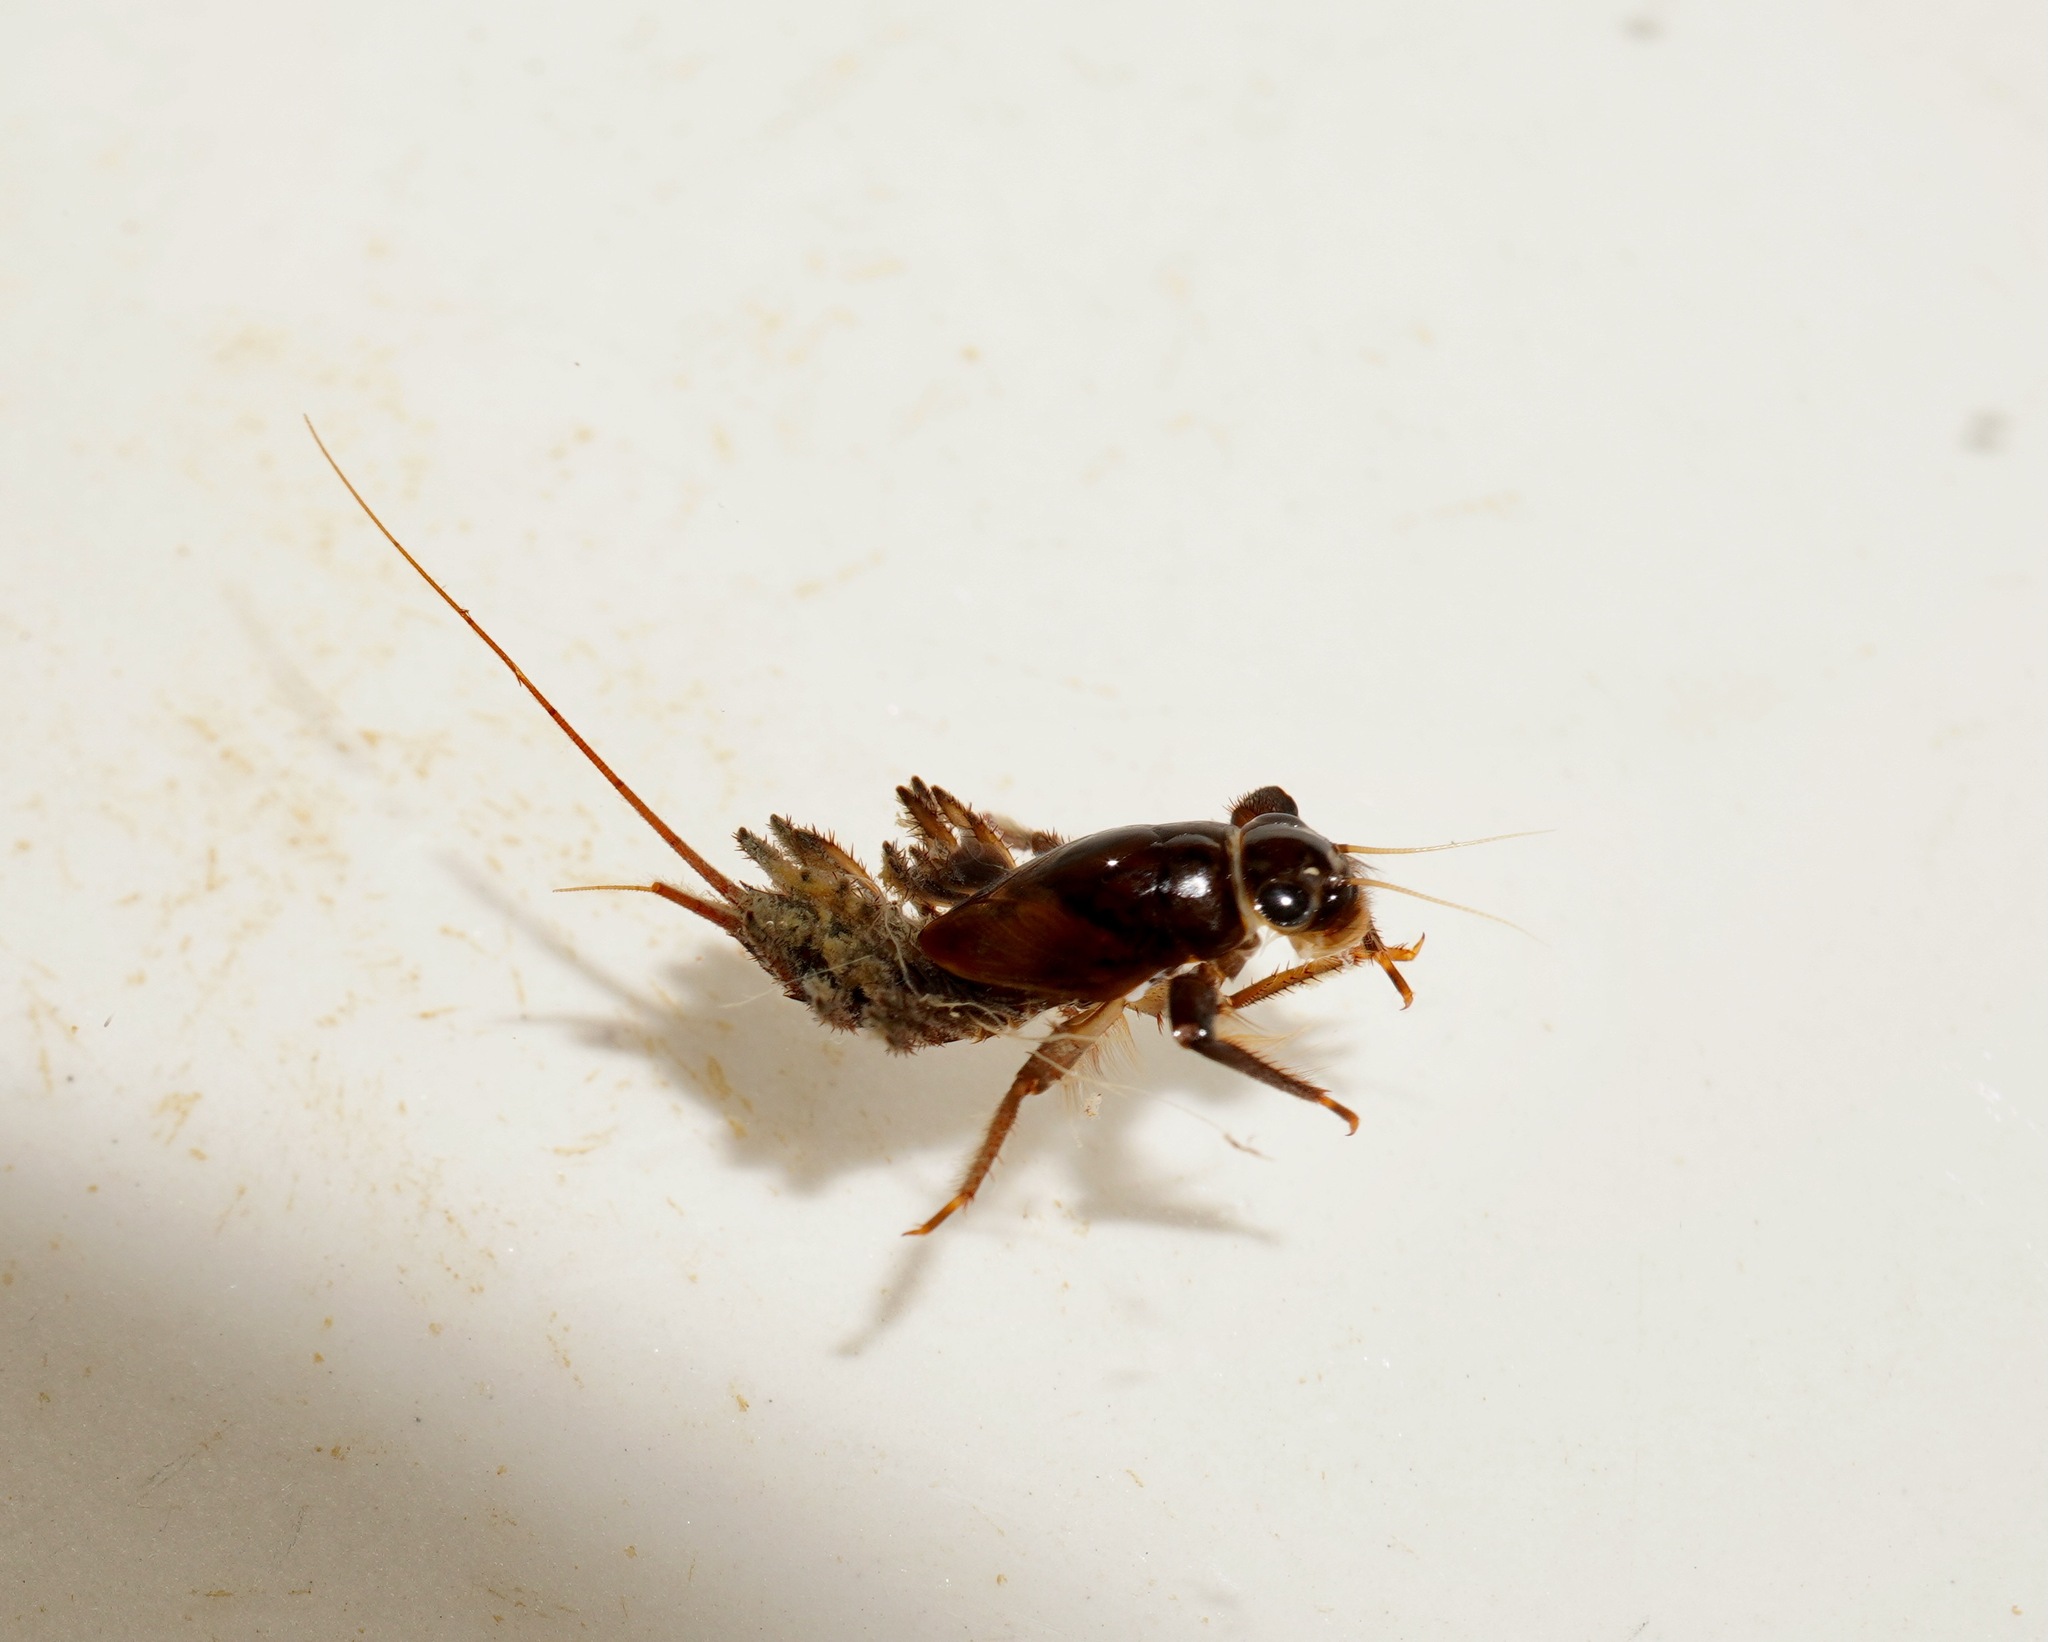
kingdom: Animalia
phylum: Arthropoda
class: Insecta
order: Ephemeroptera
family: Coloburiscidae
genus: Coloburiscus
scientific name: Coloburiscus humeralis
